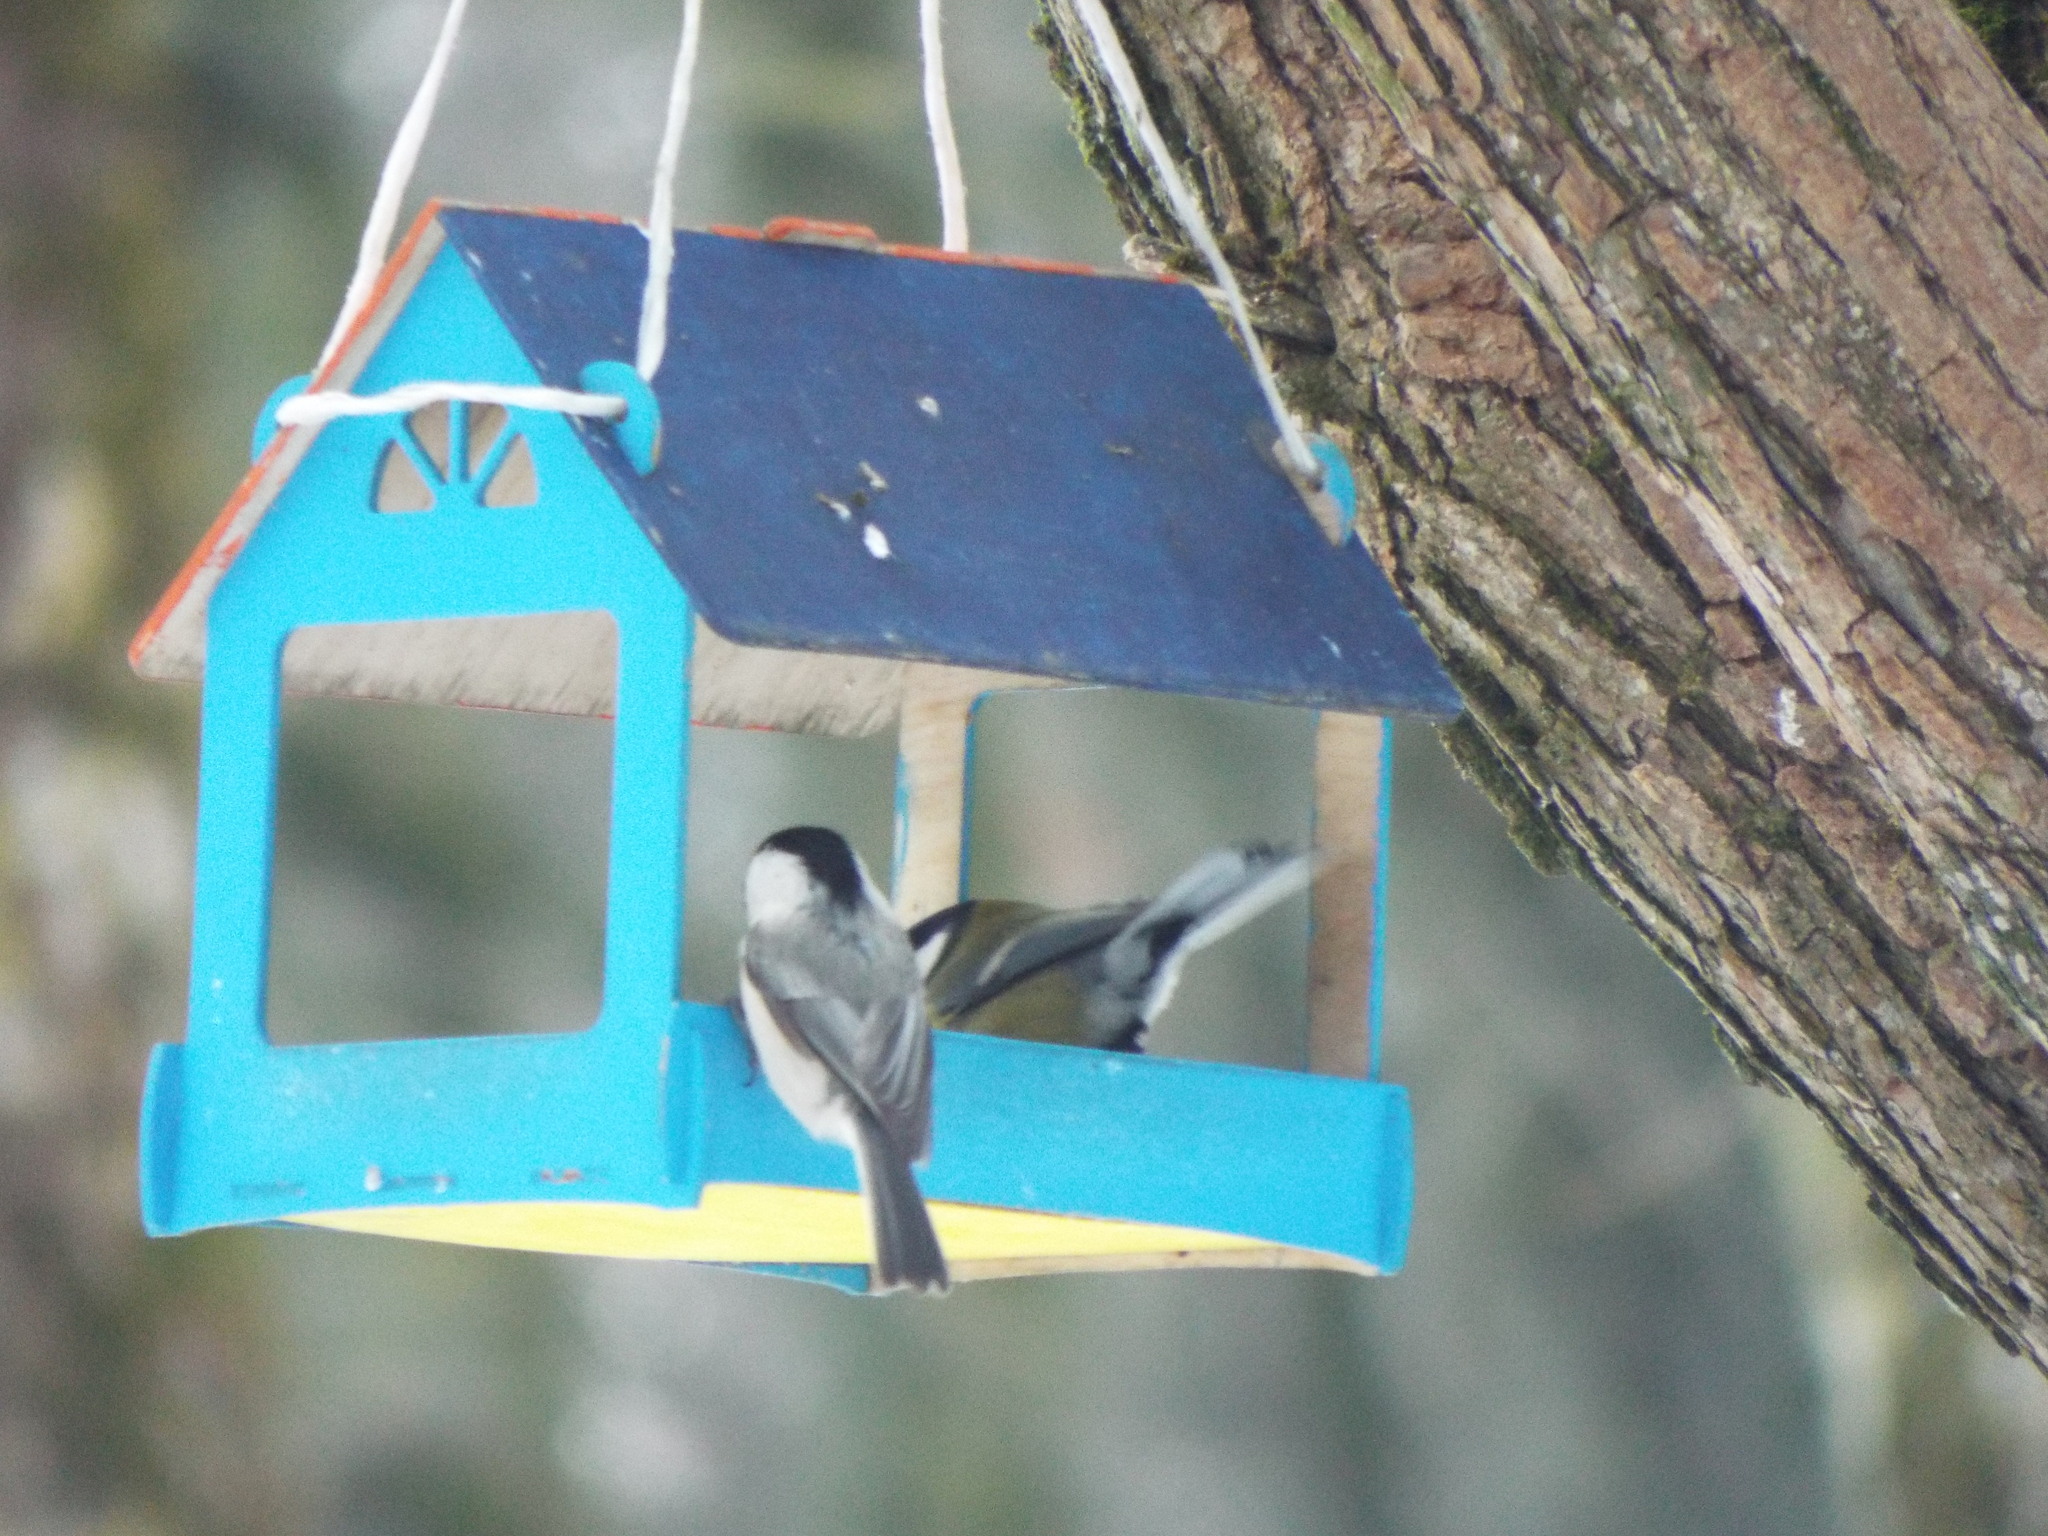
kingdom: Animalia
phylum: Chordata
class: Aves
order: Passeriformes
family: Paridae
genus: Poecile
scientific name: Poecile montanus
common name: Willow tit
